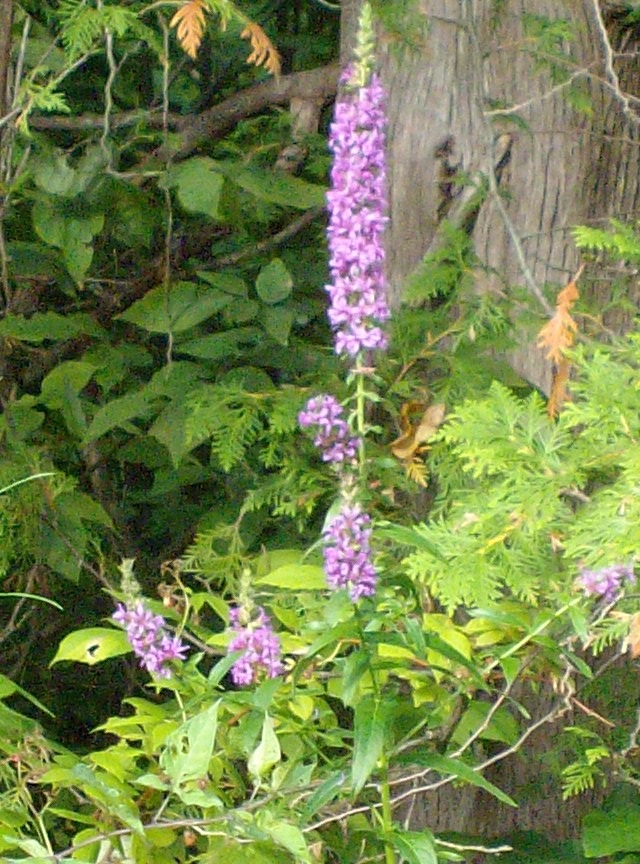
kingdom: Plantae
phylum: Tracheophyta
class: Magnoliopsida
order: Myrtales
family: Lythraceae
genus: Lythrum
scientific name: Lythrum salicaria
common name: Purple loosestrife
